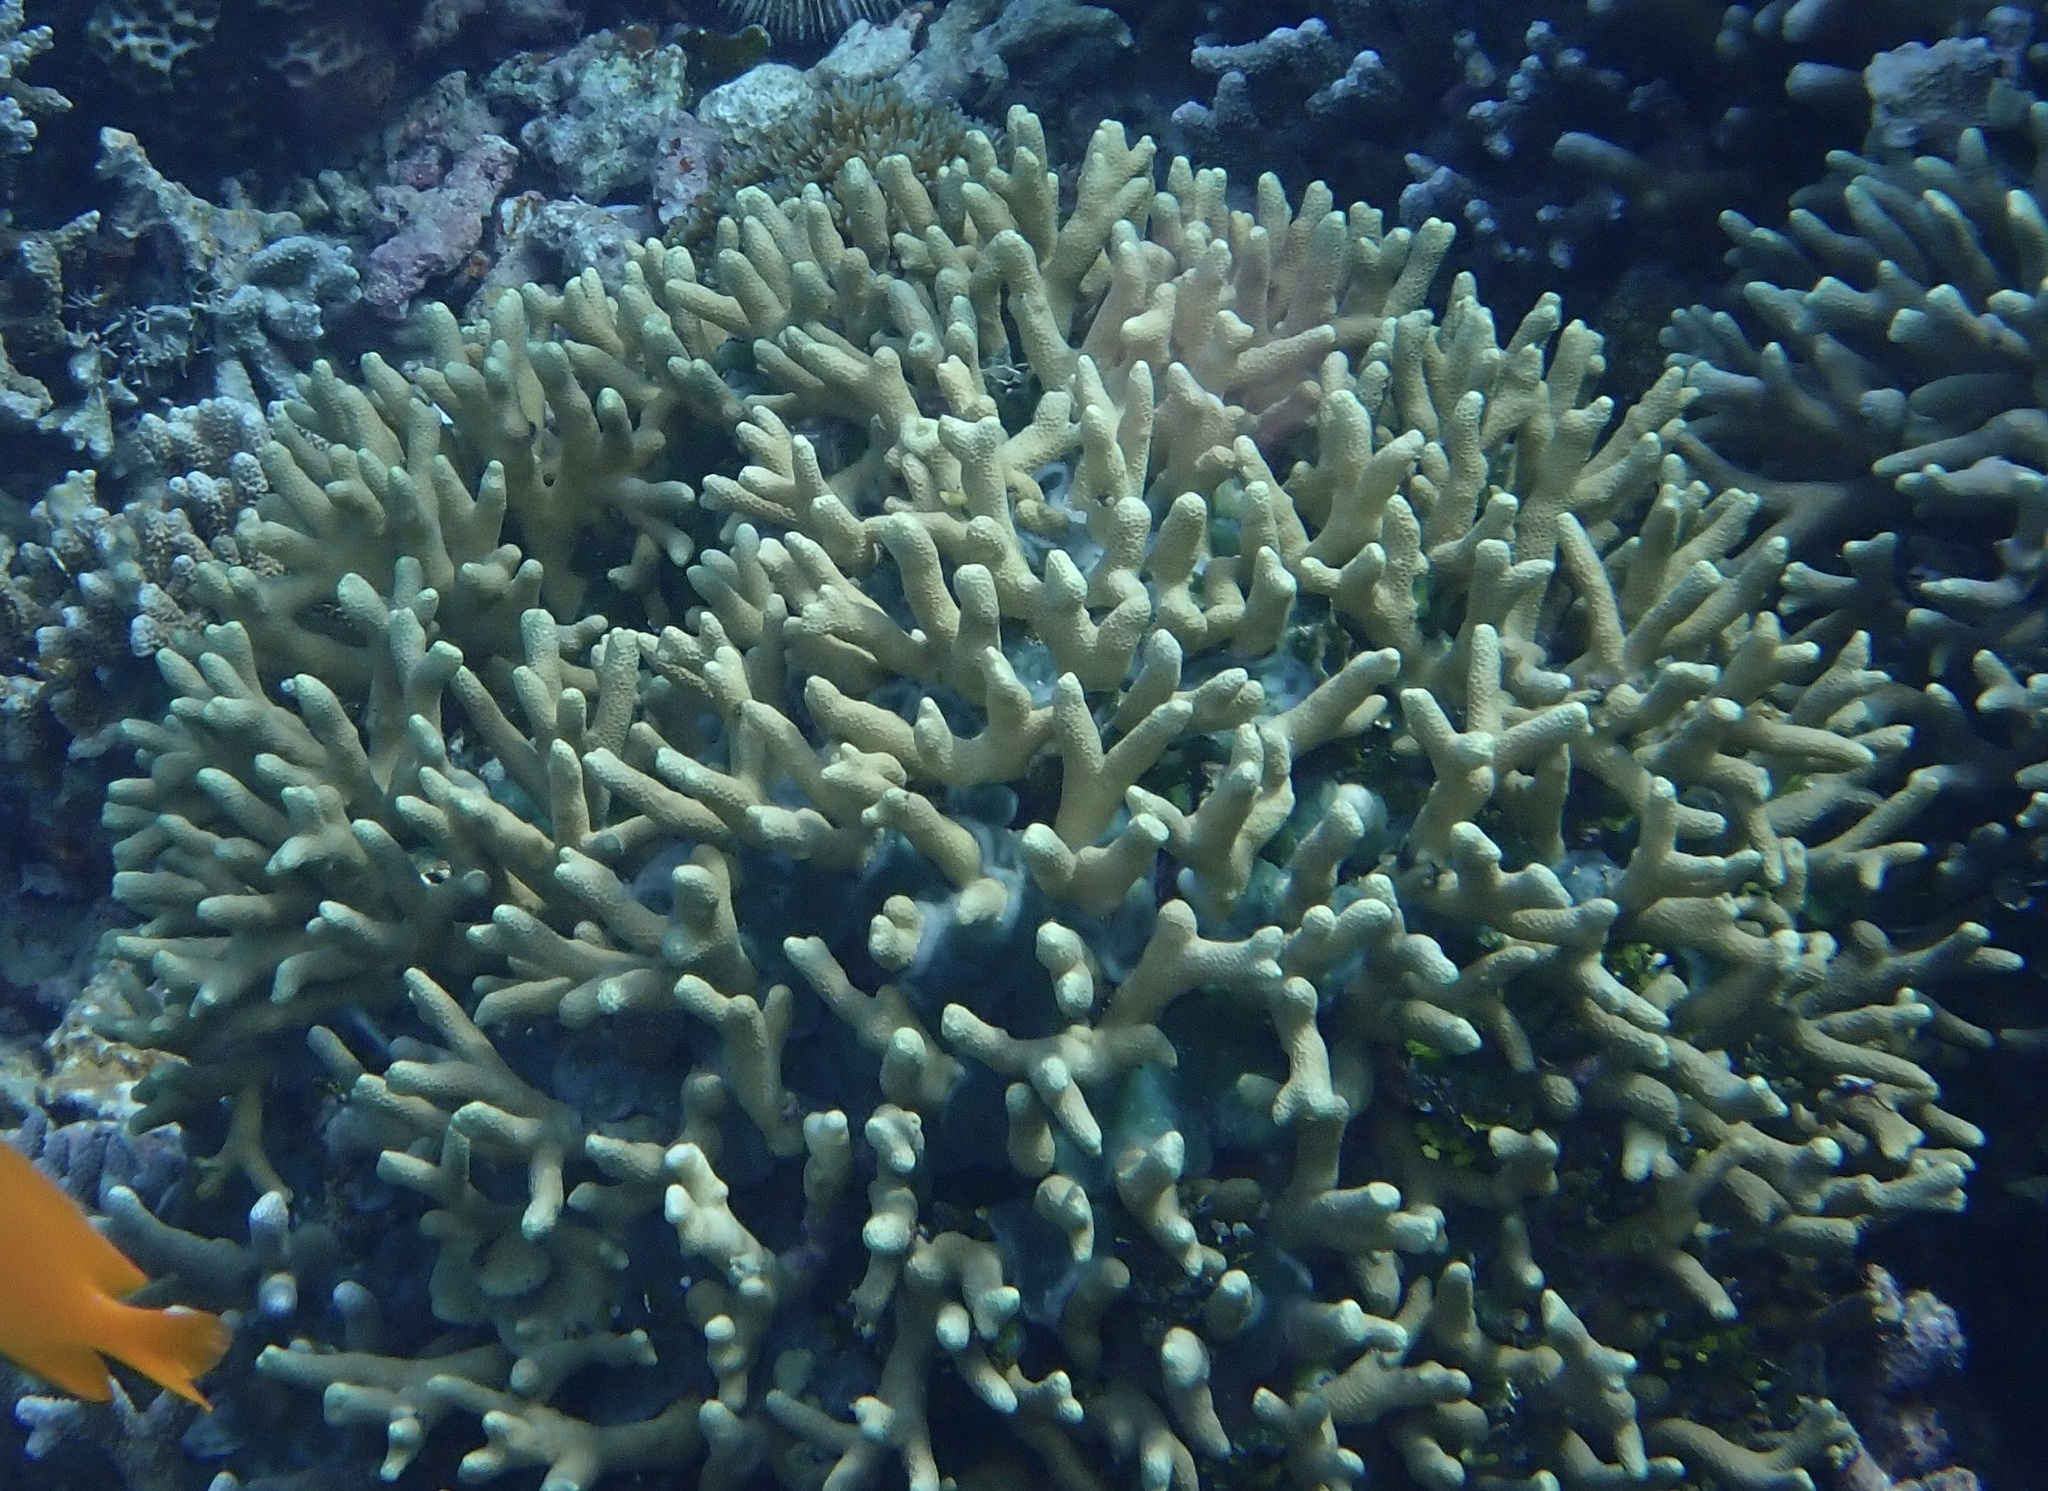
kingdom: Animalia
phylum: Cnidaria
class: Anthozoa
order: Scleractinia
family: Poritidae
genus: Porites
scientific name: Porites cylindrica
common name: Hump coral
